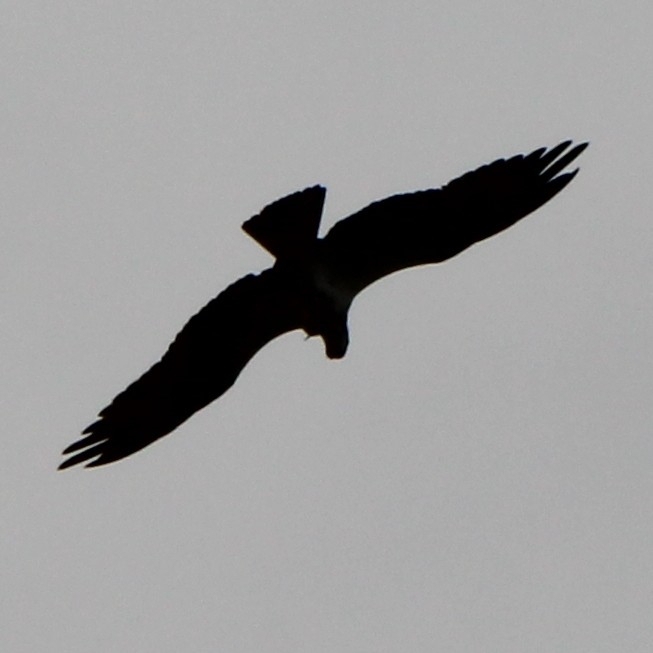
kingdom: Animalia
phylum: Chordata
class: Aves
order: Accipitriformes
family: Pandionidae
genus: Pandion
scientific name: Pandion haliaetus
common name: Osprey
